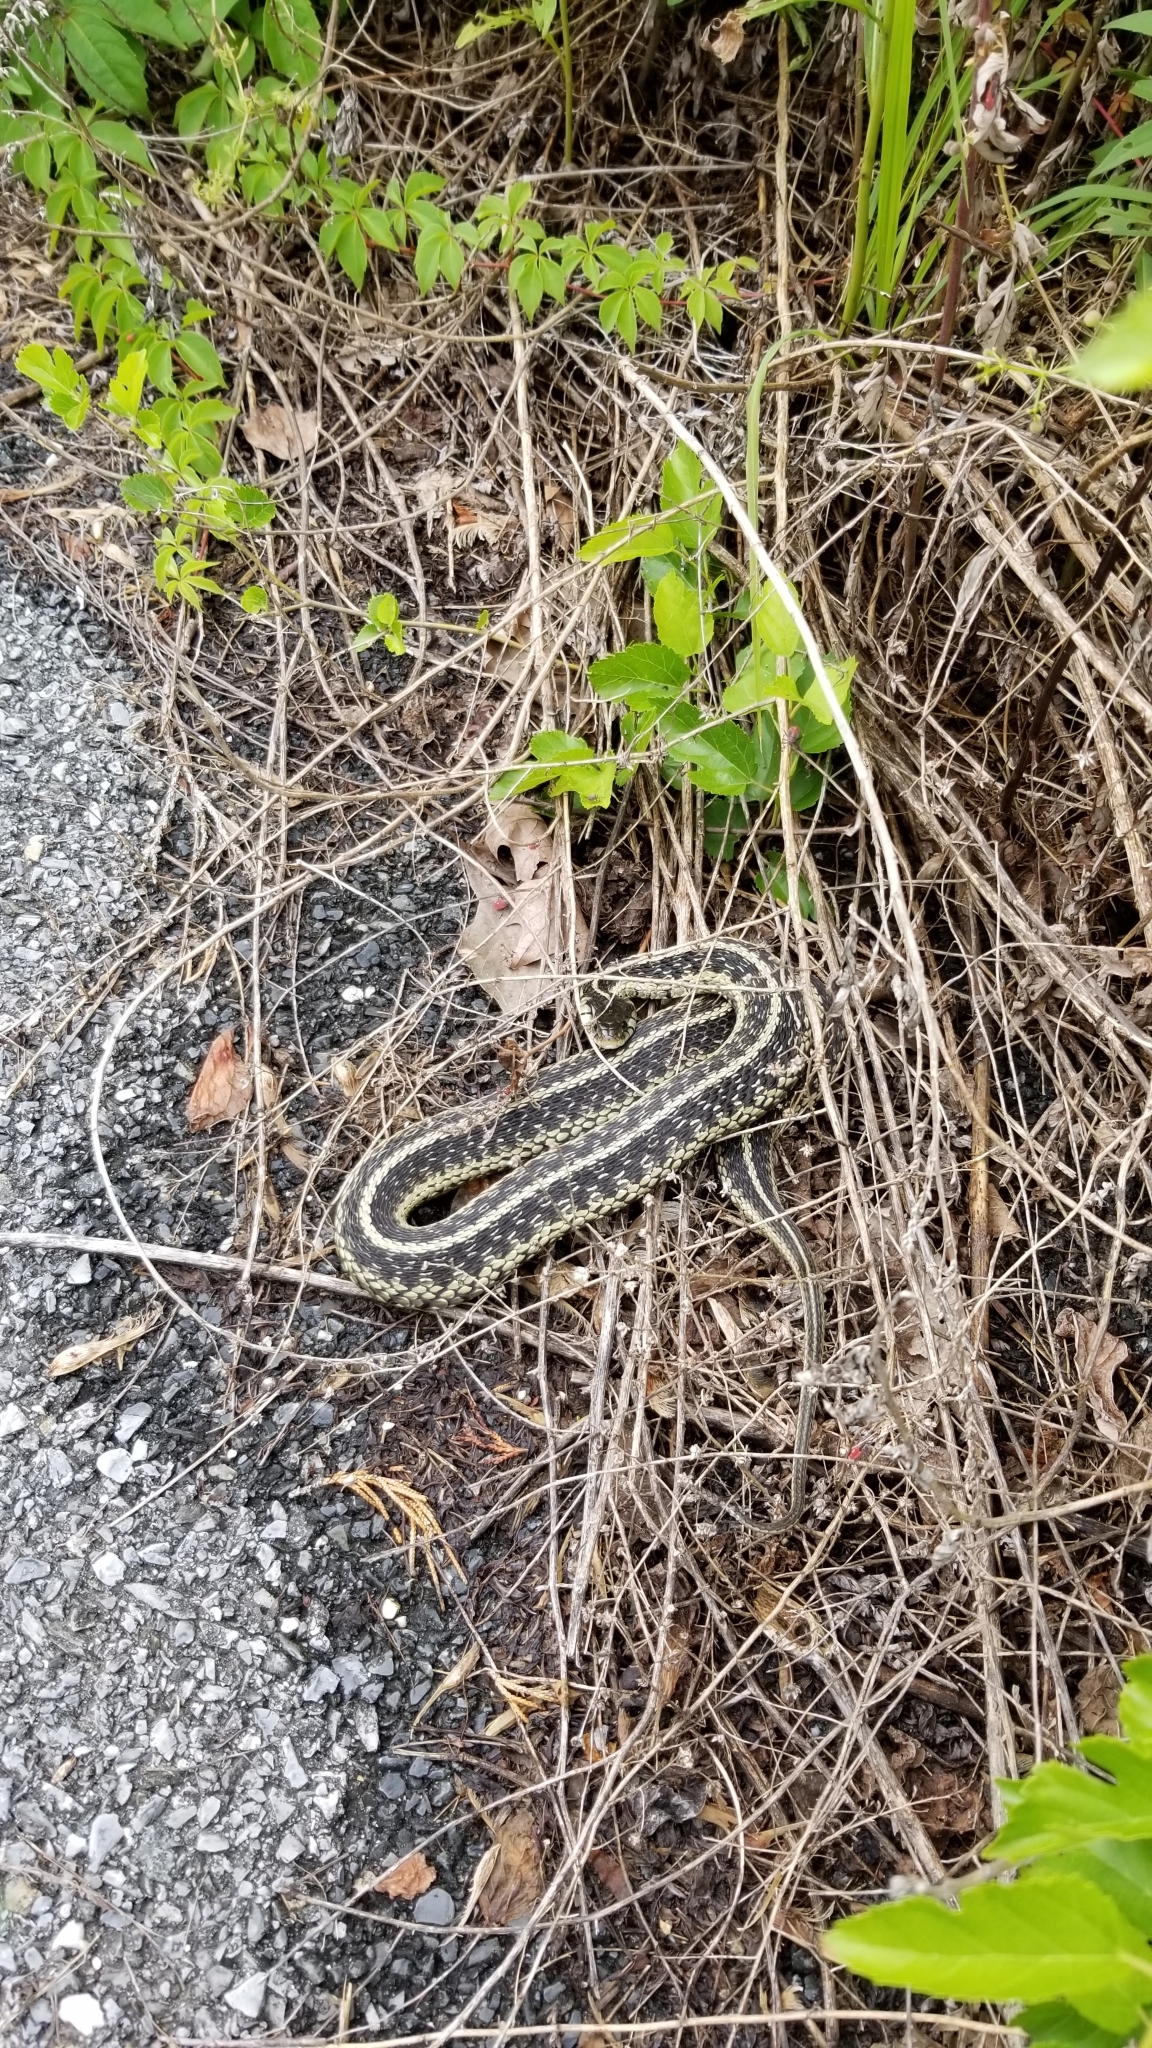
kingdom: Animalia
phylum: Chordata
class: Squamata
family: Colubridae
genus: Thamnophis
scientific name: Thamnophis sirtalis
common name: Common garter snake
